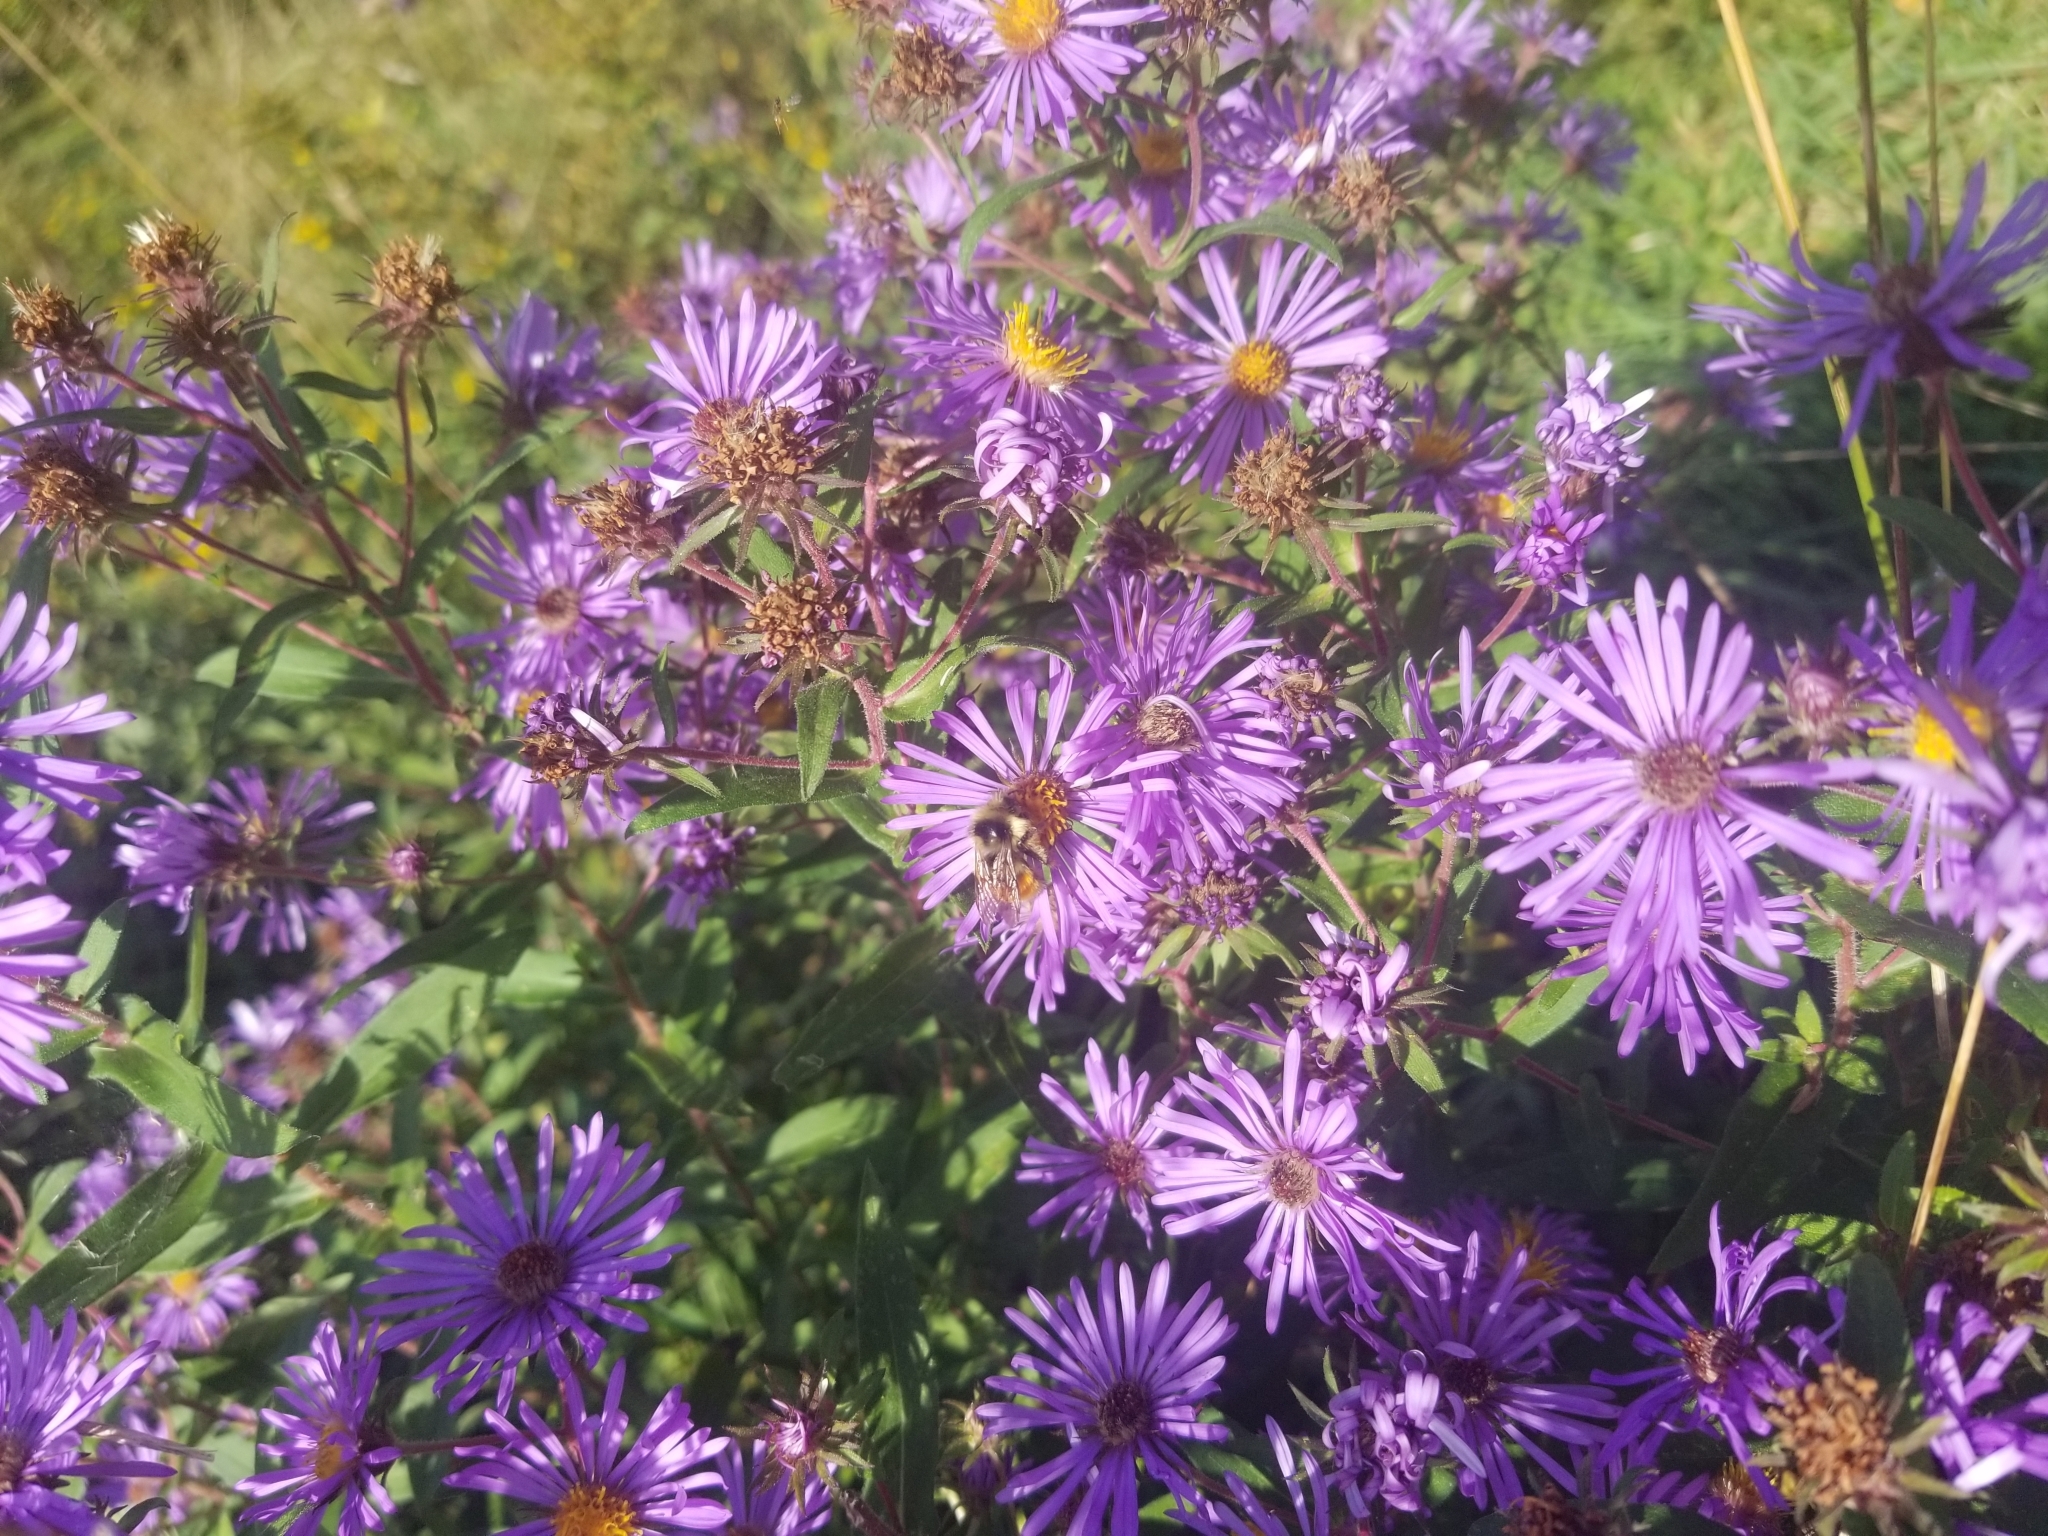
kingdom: Animalia
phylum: Arthropoda
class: Insecta
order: Hymenoptera
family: Apidae
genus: Bombus
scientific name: Bombus ternarius
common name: Tri-colored bumble bee
